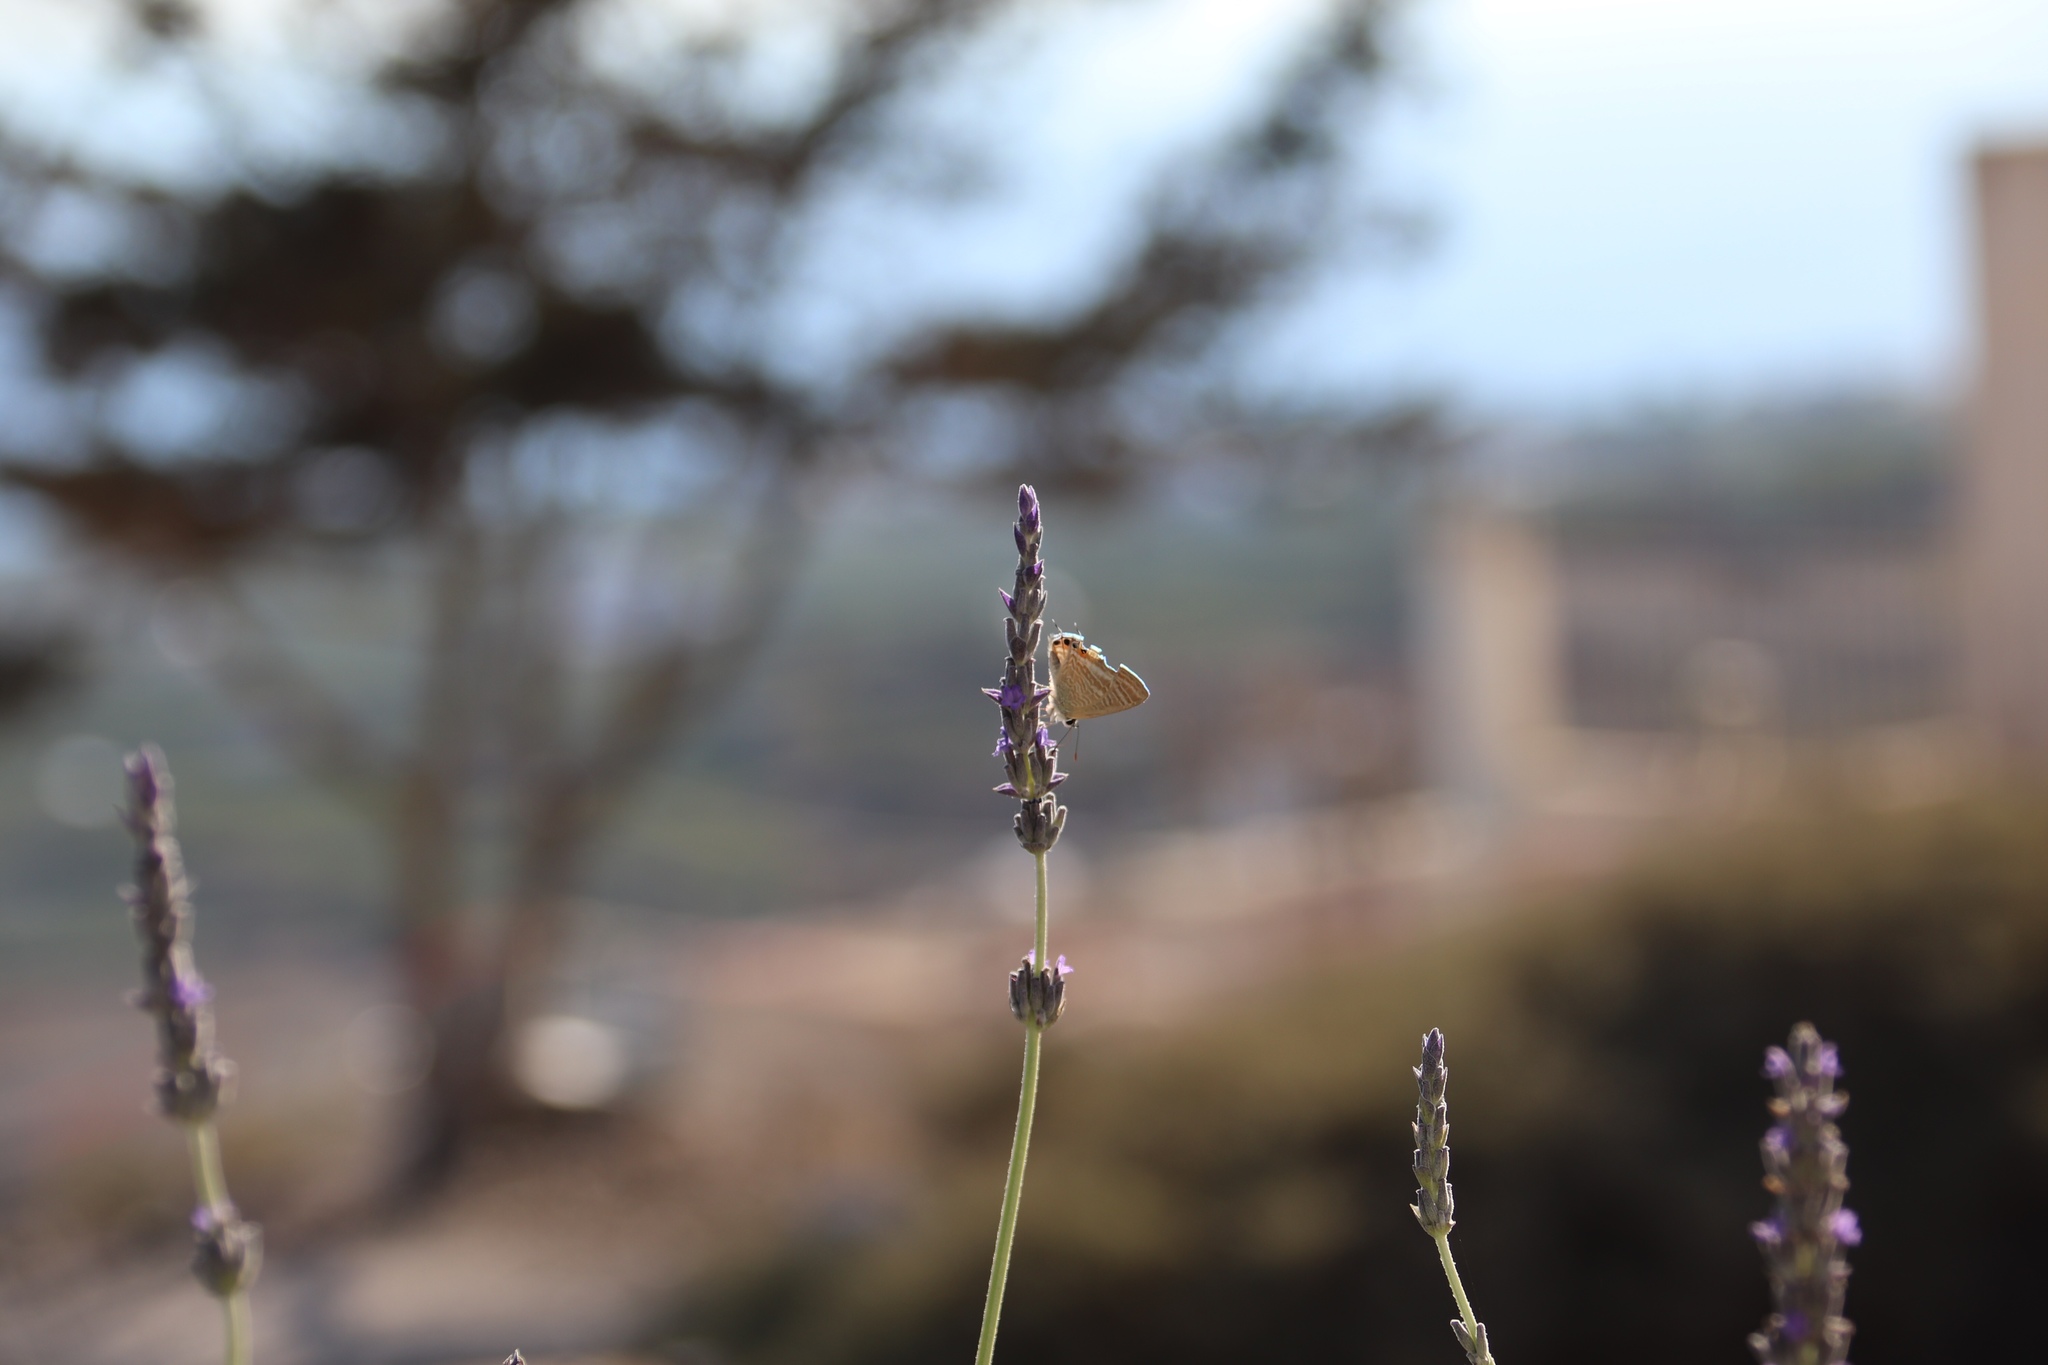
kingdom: Animalia
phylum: Arthropoda
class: Insecta
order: Lepidoptera
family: Lycaenidae
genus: Lampides
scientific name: Lampides boeticus
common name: Long-tailed blue
